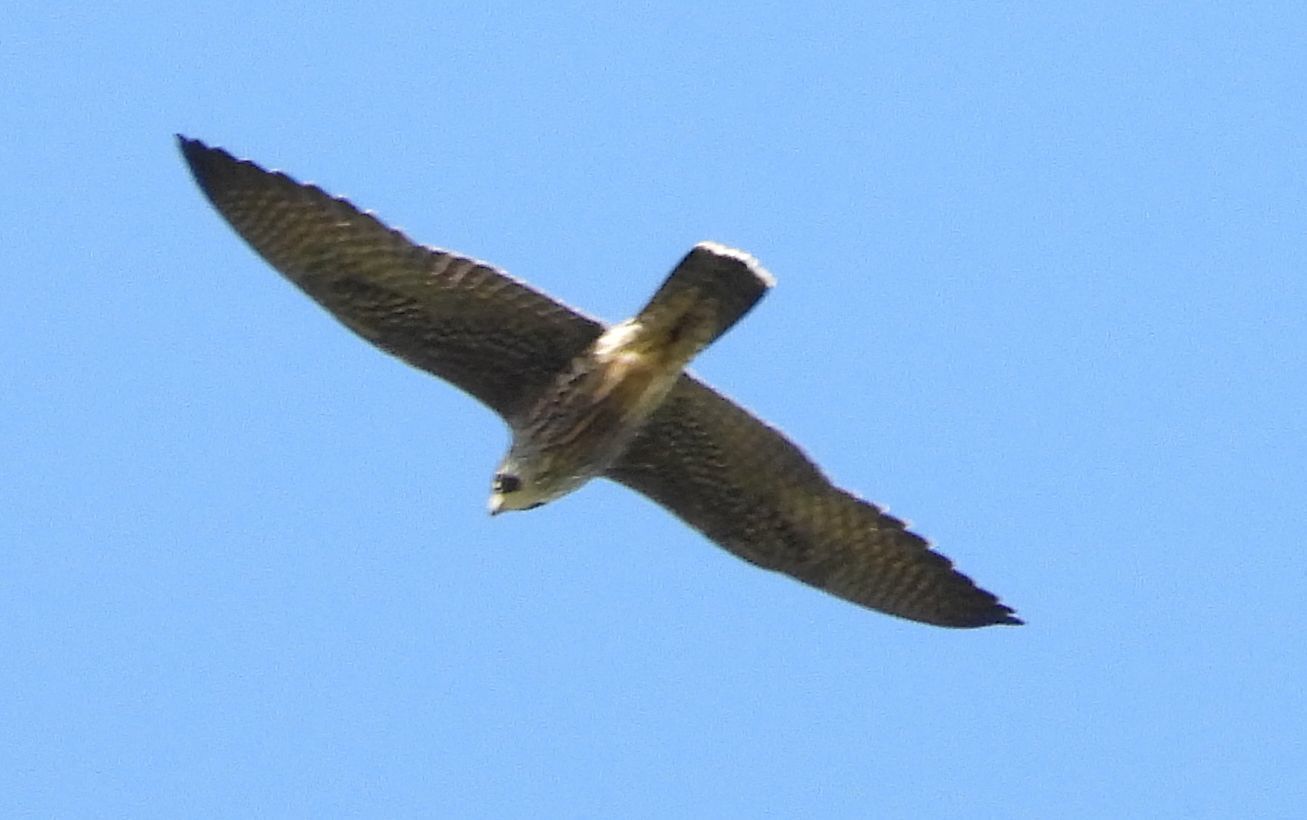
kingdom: Animalia
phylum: Chordata
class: Aves
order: Falconiformes
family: Falconidae
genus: Falco
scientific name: Falco peregrinus
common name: Peregrine falcon
